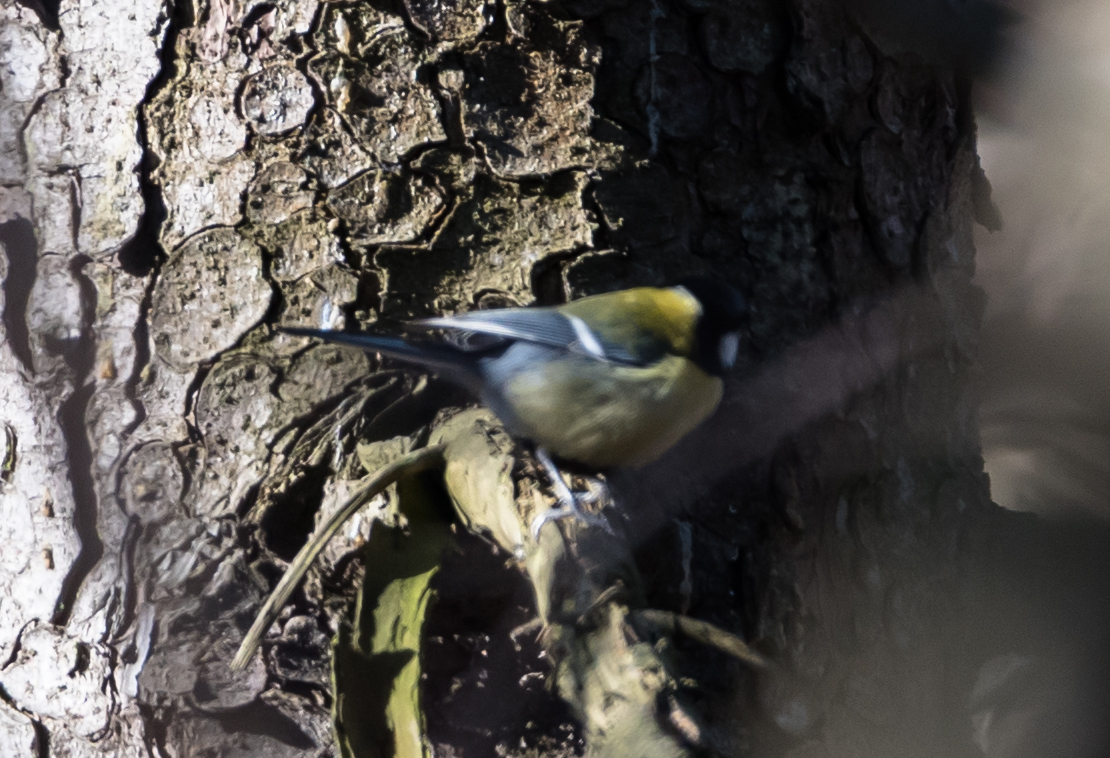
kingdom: Animalia
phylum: Chordata
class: Aves
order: Passeriformes
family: Paridae
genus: Parus
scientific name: Parus major
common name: Great tit
